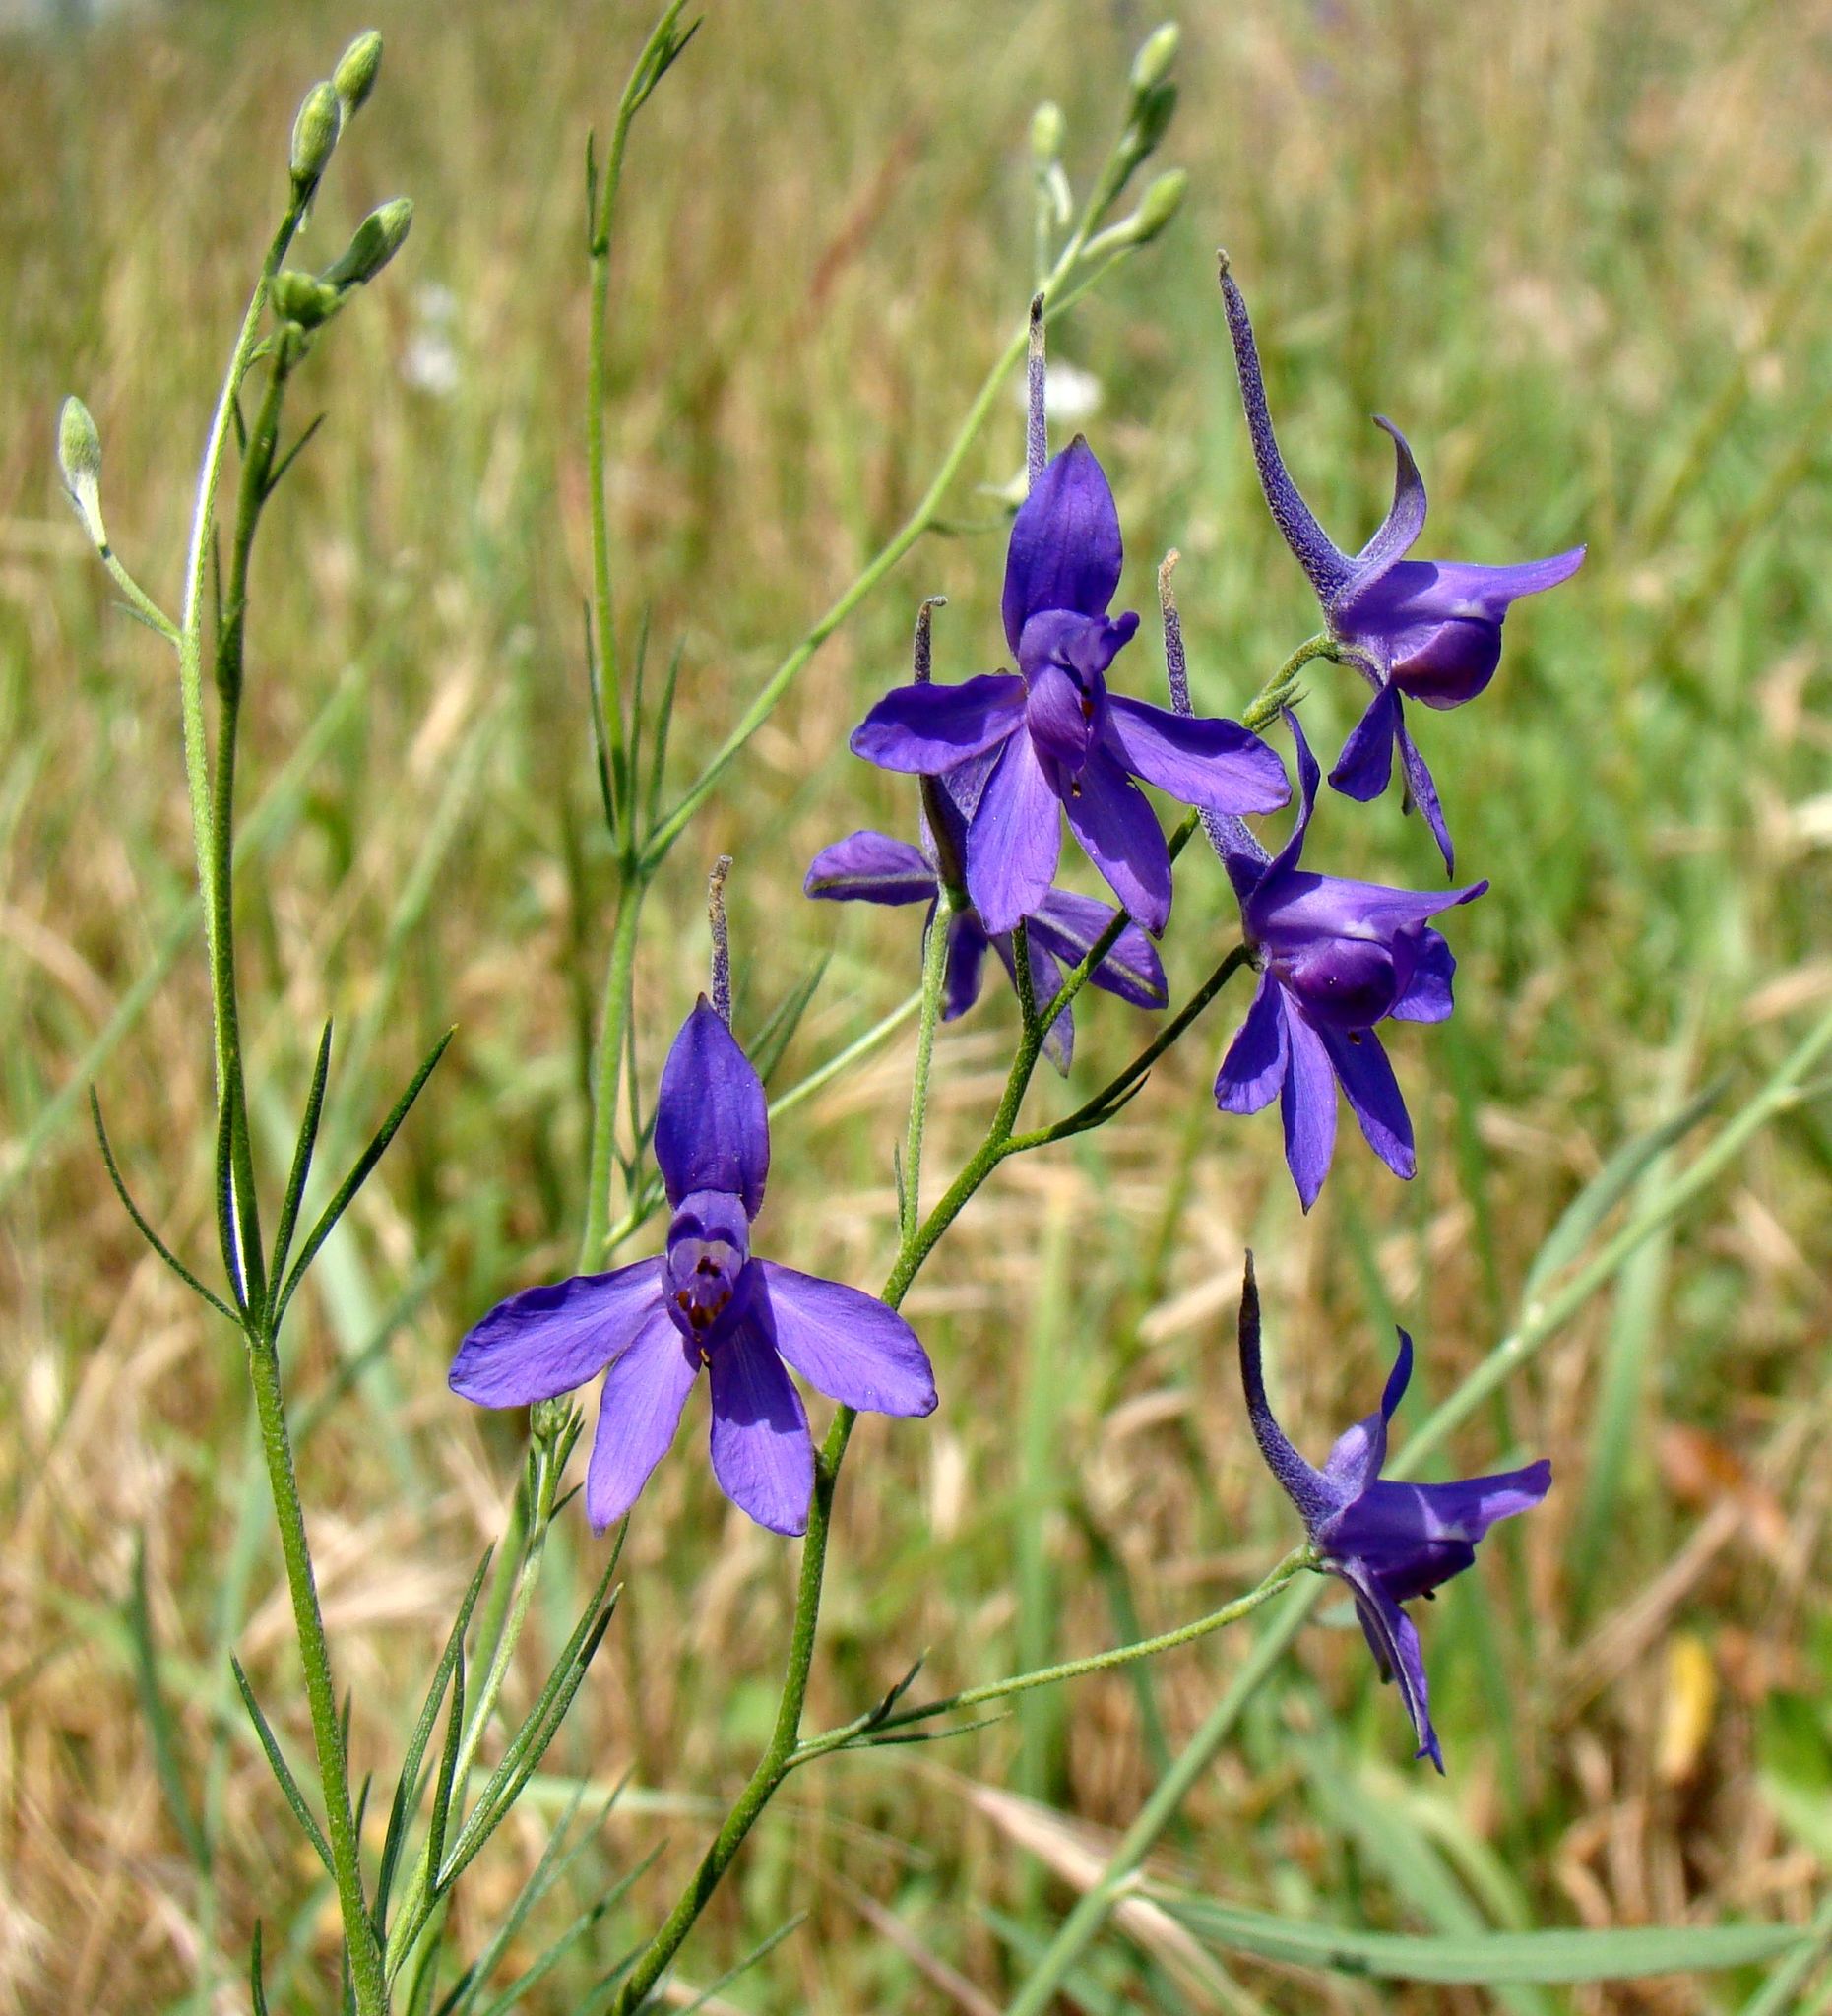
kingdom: Plantae
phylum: Tracheophyta
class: Magnoliopsida
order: Ranunculales
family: Ranunculaceae
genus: Delphinium
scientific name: Delphinium consolida
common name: Branching larkspur
